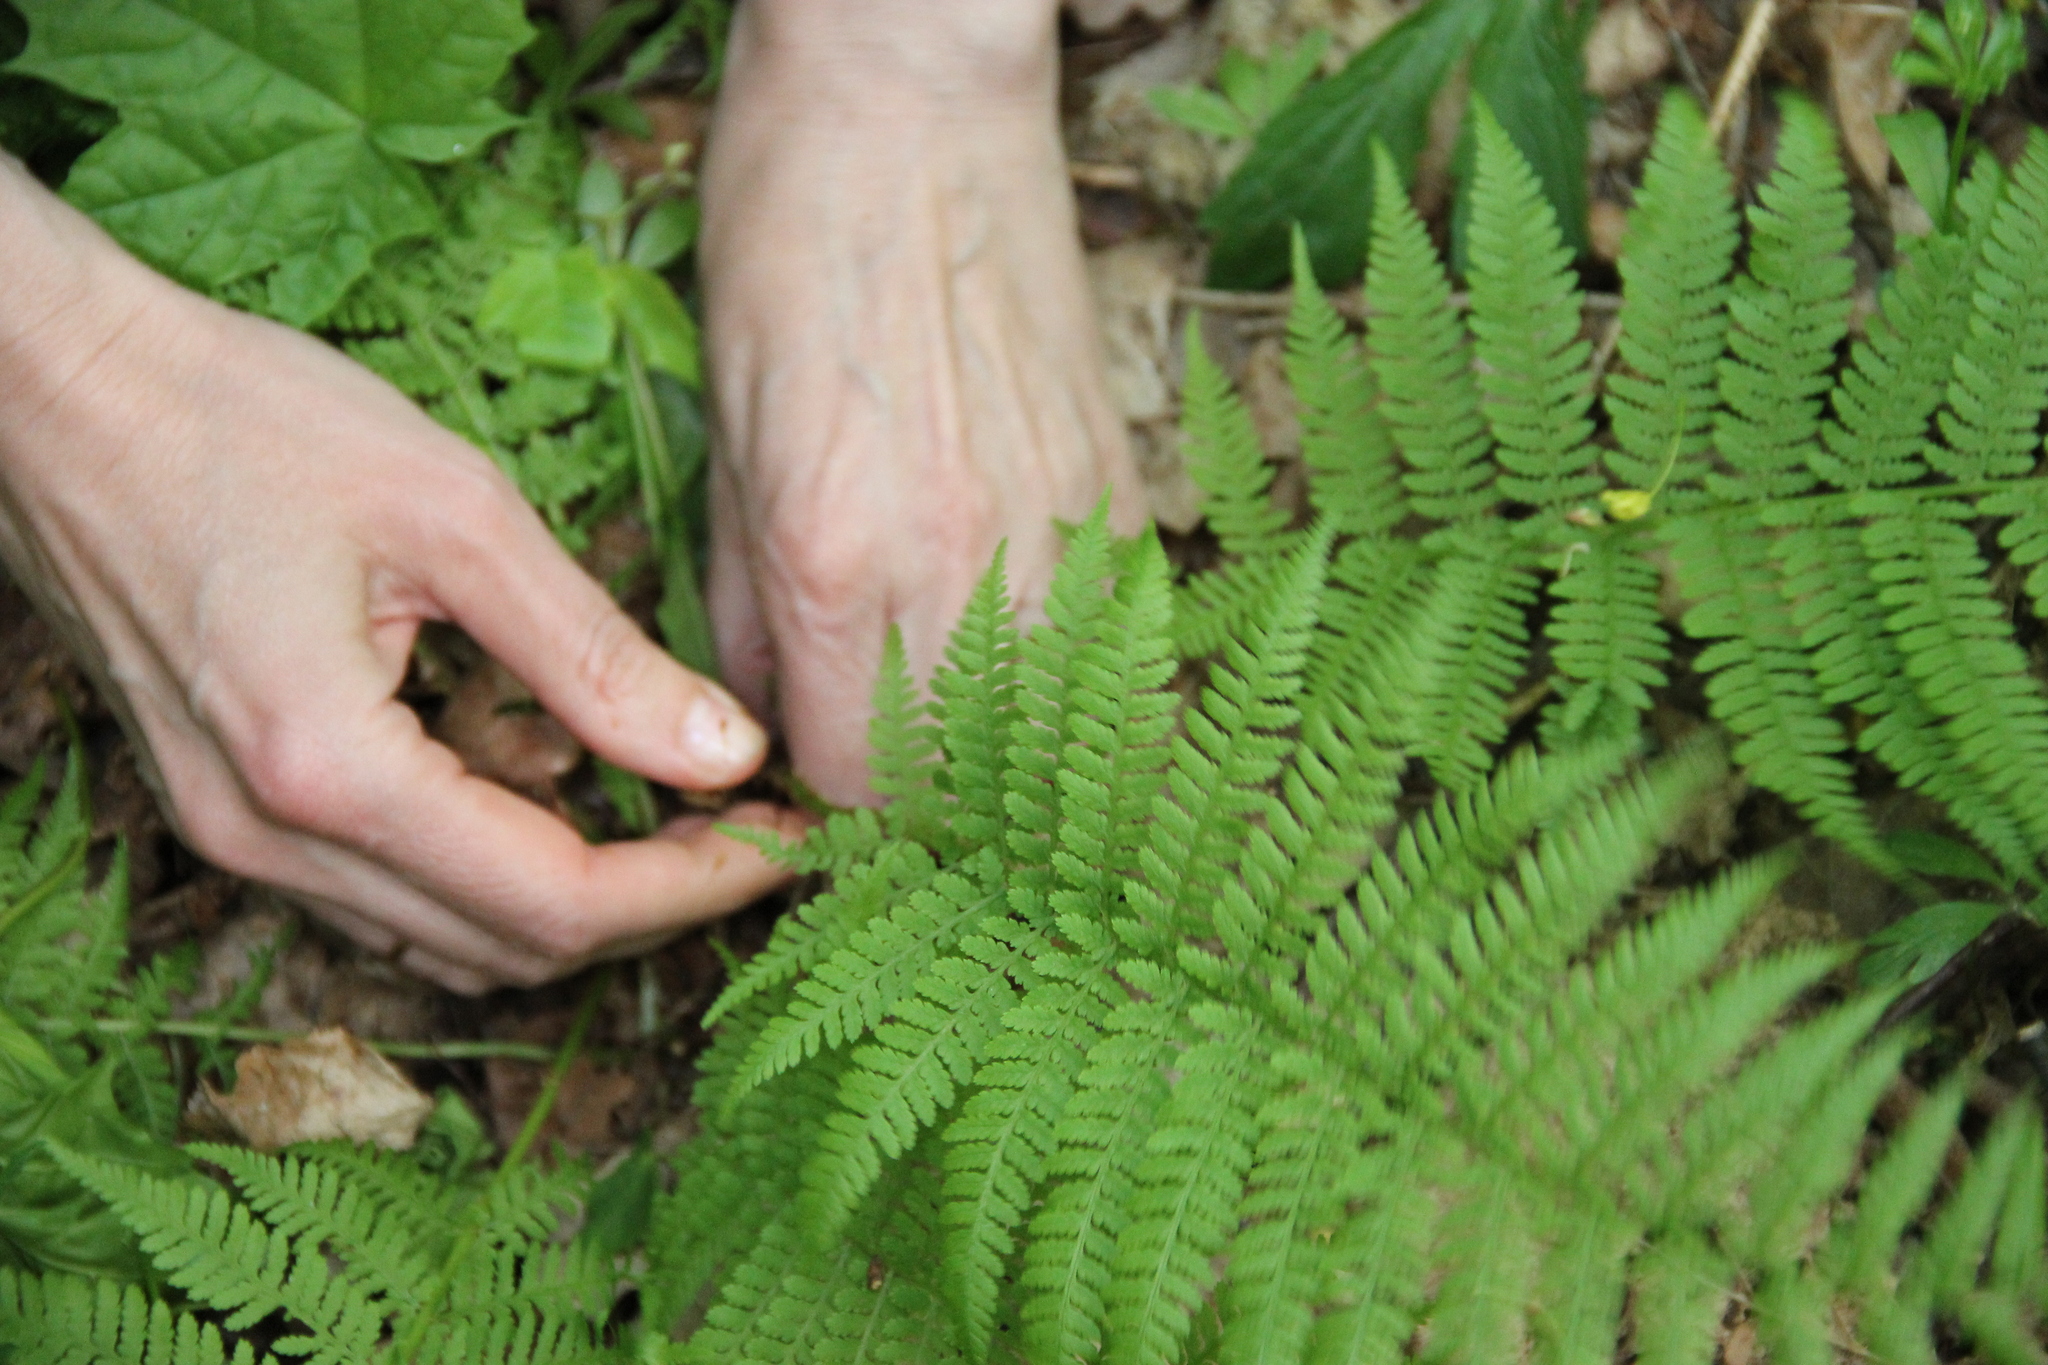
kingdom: Plantae
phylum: Tracheophyta
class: Polypodiopsida
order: Polypodiales
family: Athyriaceae
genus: Athyrium
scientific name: Athyrium filix-femina
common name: Lady fern
